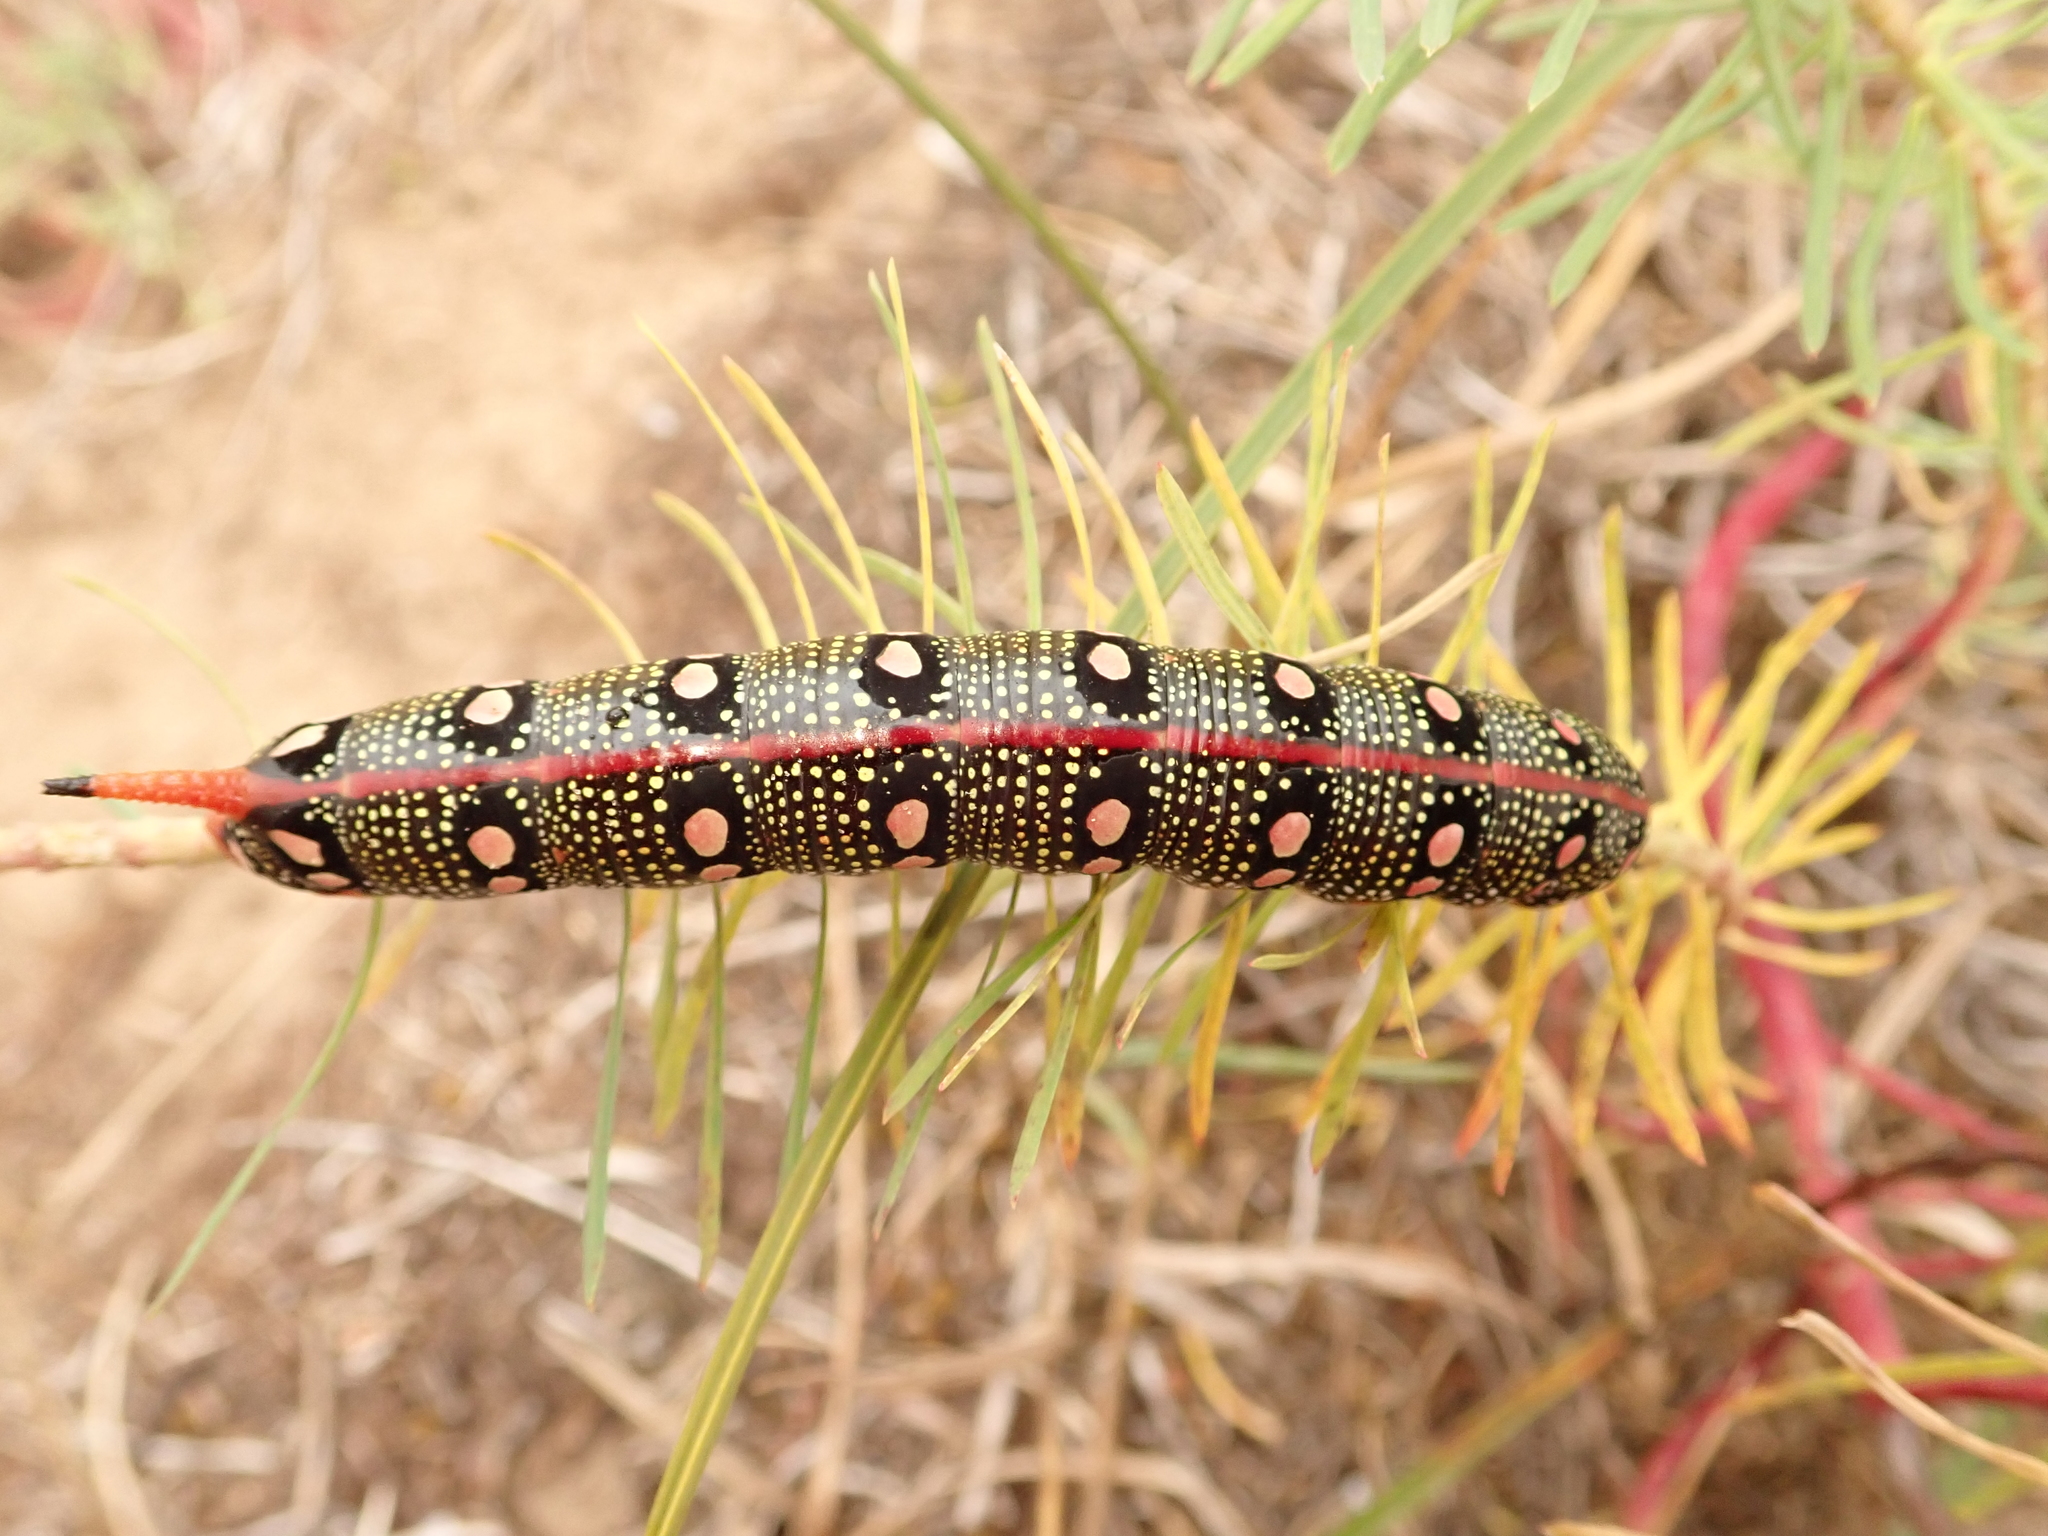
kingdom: Animalia
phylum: Arthropoda
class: Insecta
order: Lepidoptera
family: Sphingidae
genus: Hyles
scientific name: Hyles euphorbiae
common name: Spurge hawk-moth
